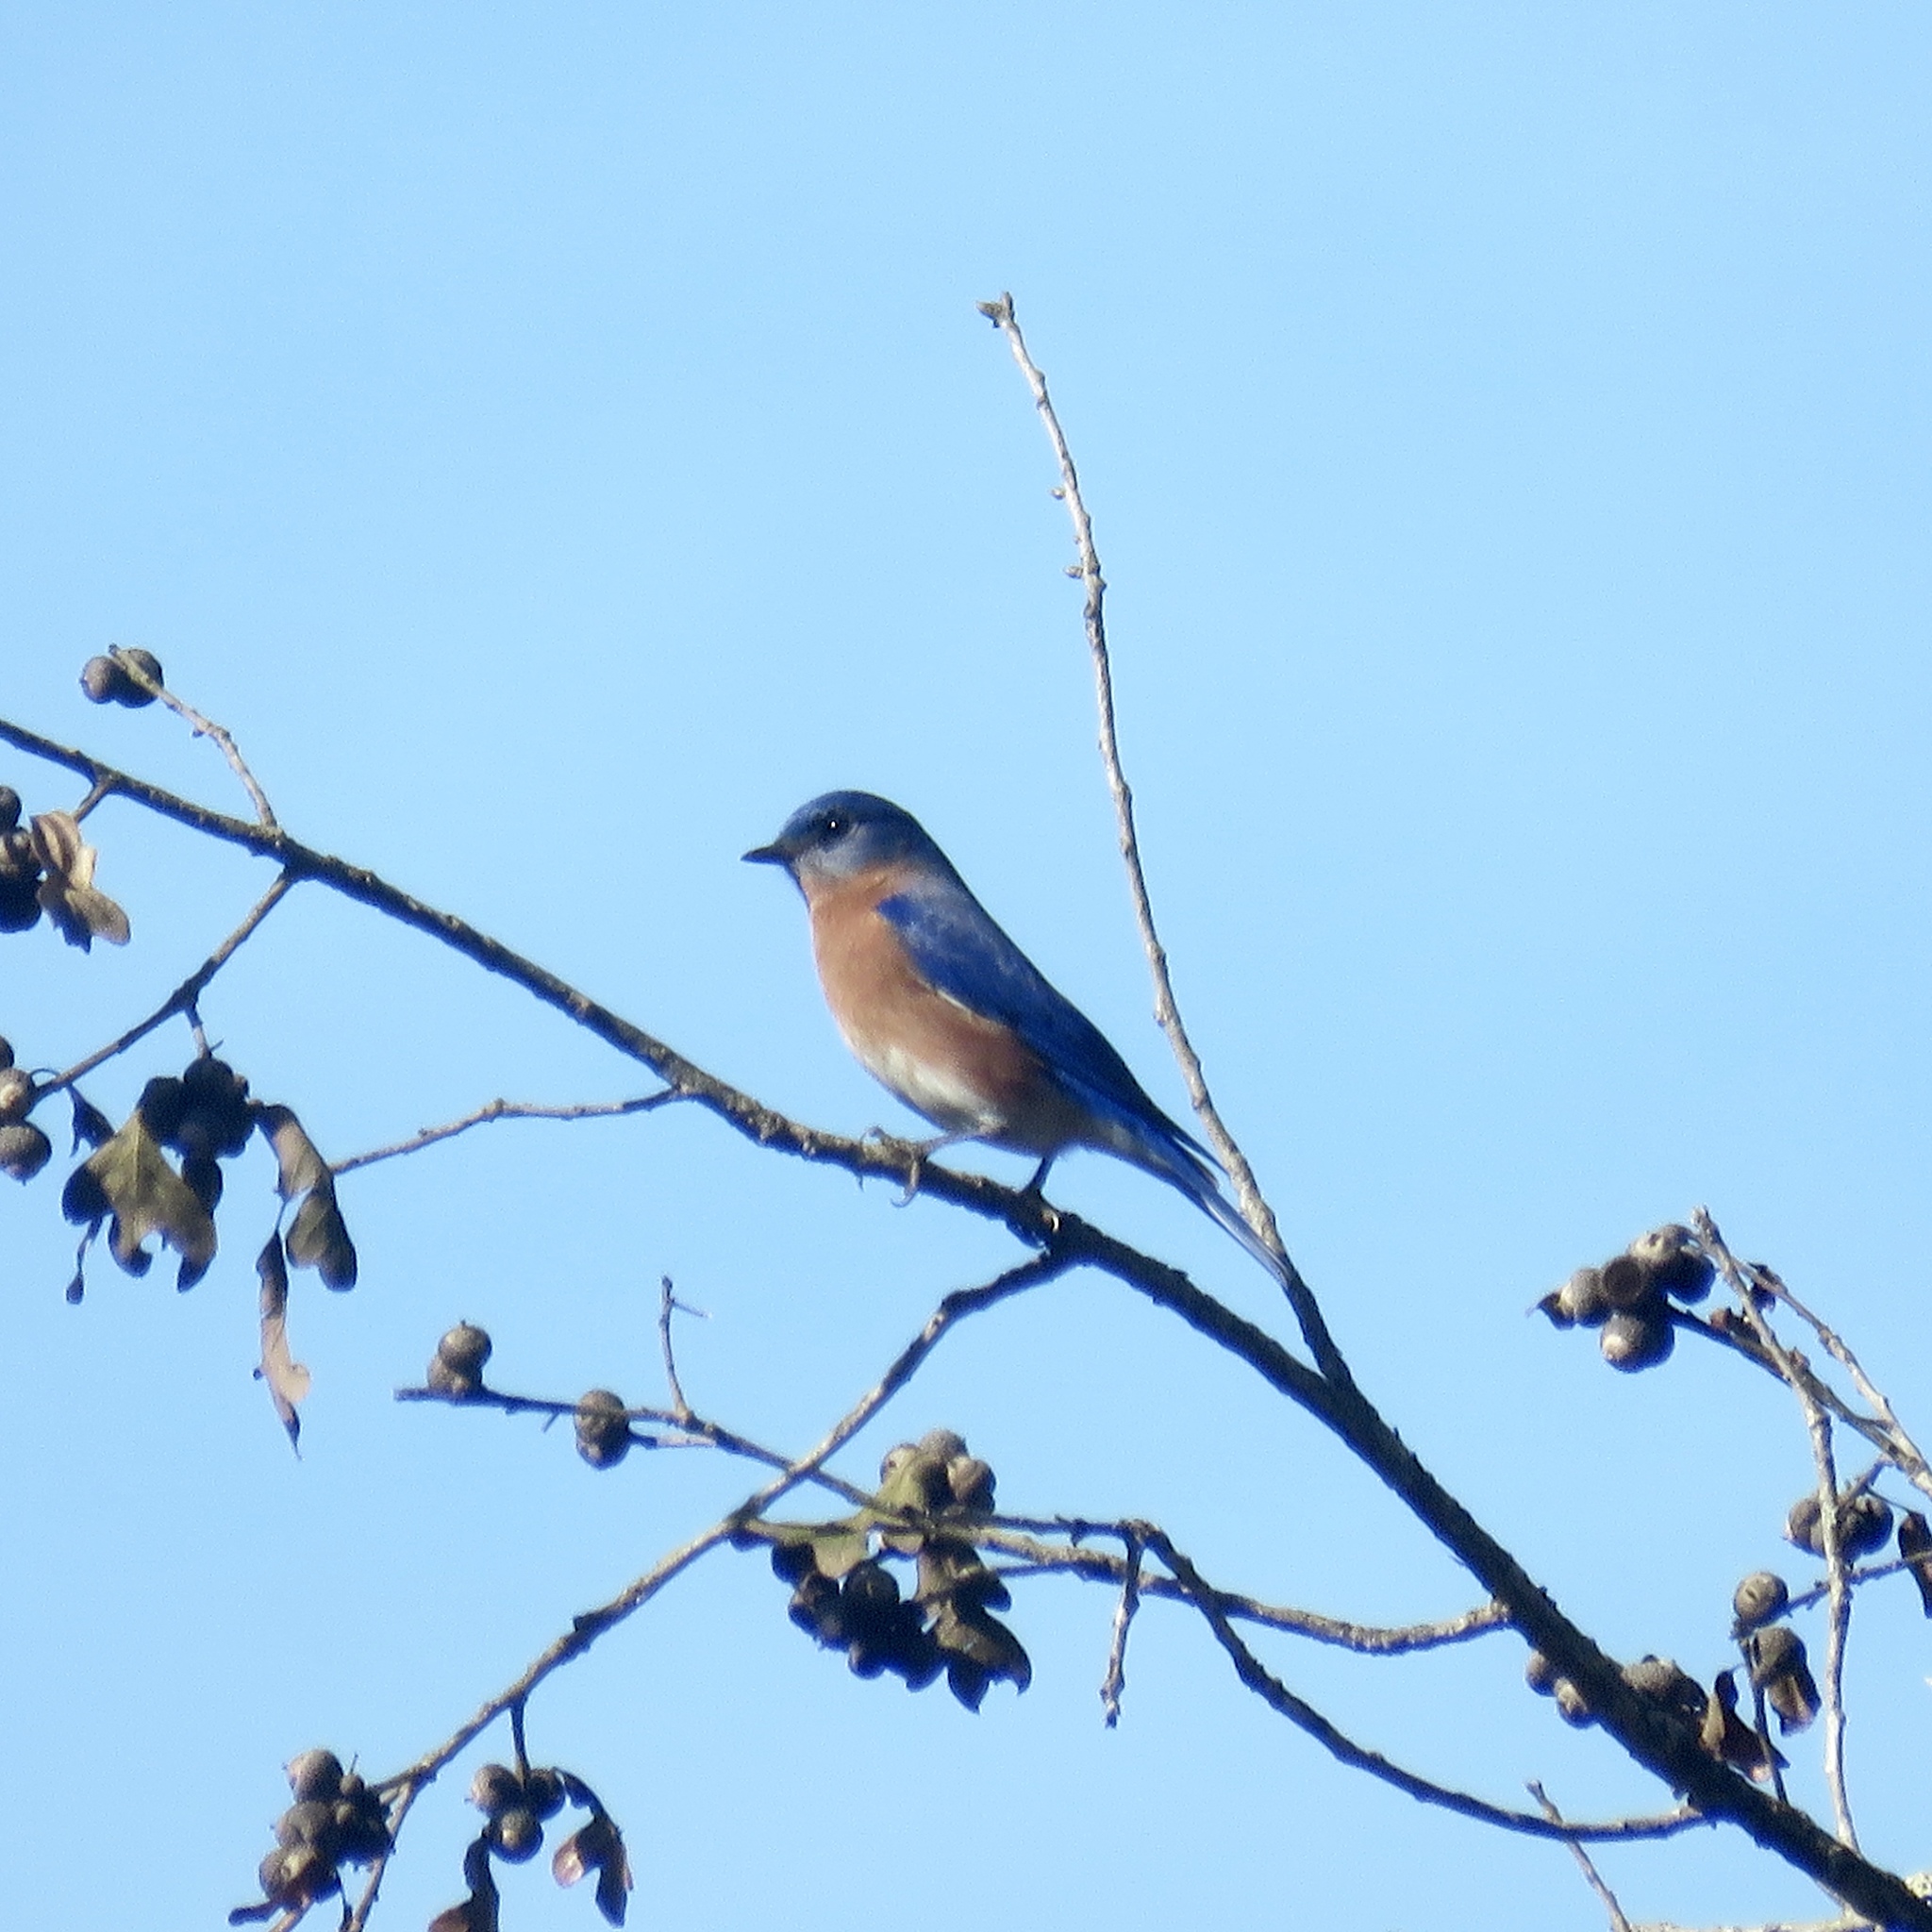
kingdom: Animalia
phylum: Chordata
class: Aves
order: Passeriformes
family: Turdidae
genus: Sialia
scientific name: Sialia sialis
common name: Eastern bluebird
